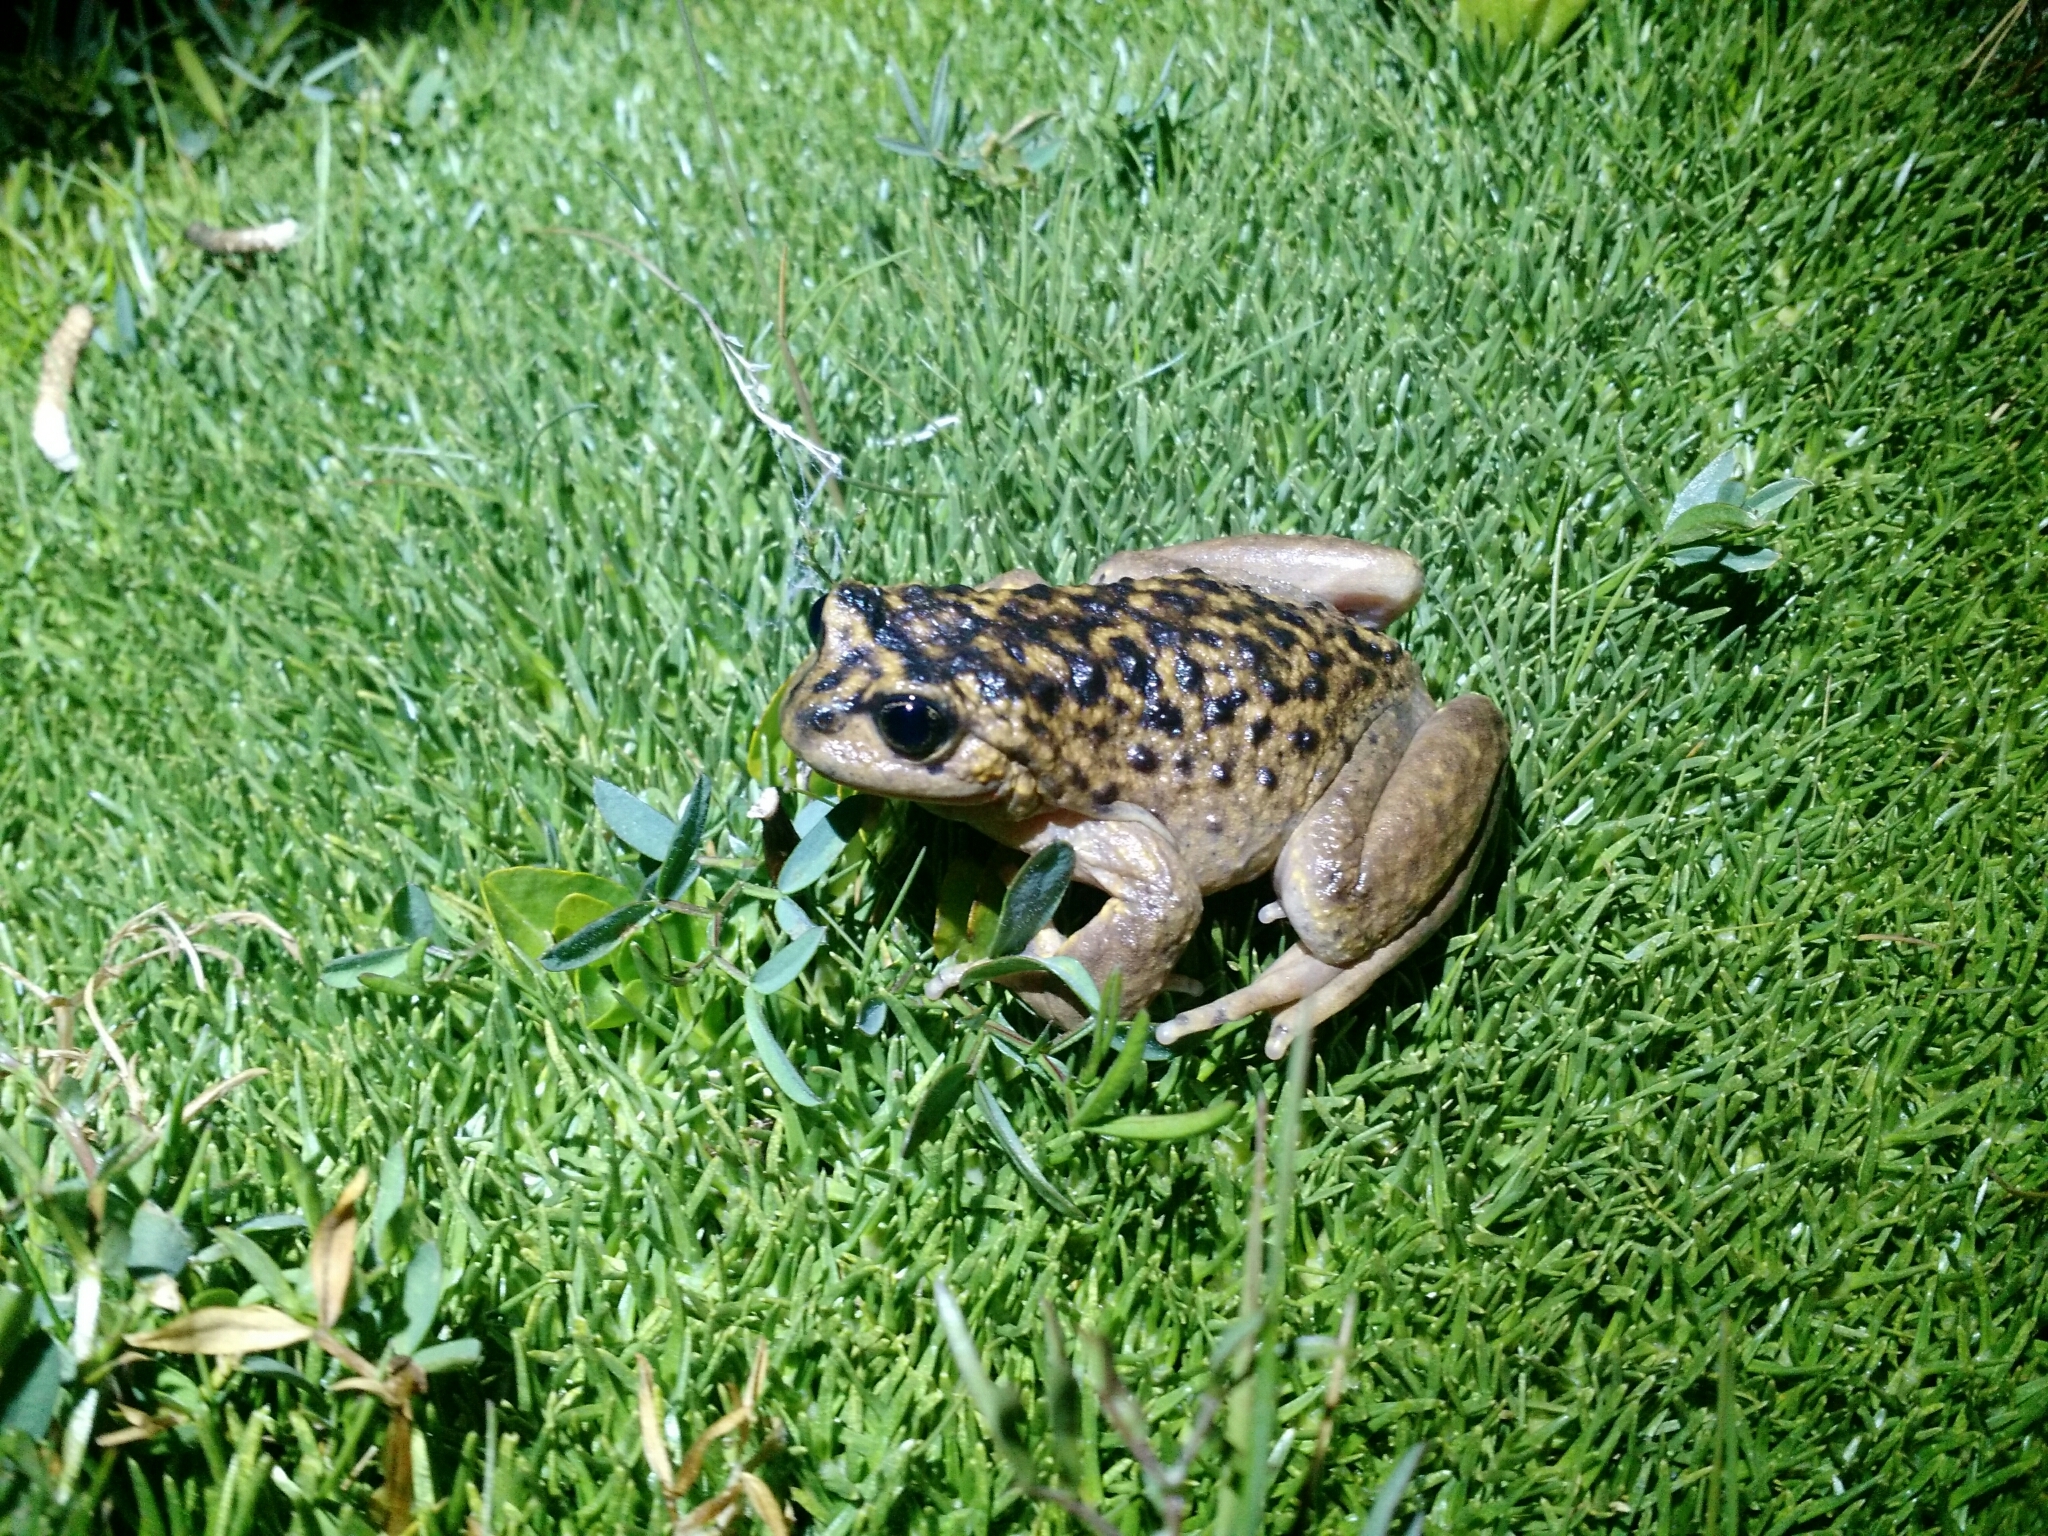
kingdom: Animalia
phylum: Chordata
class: Amphibia
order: Anura
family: Alsodidae
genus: Alsodes
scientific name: Alsodes pehuenche
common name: Pehuenche spiny-chest frog
